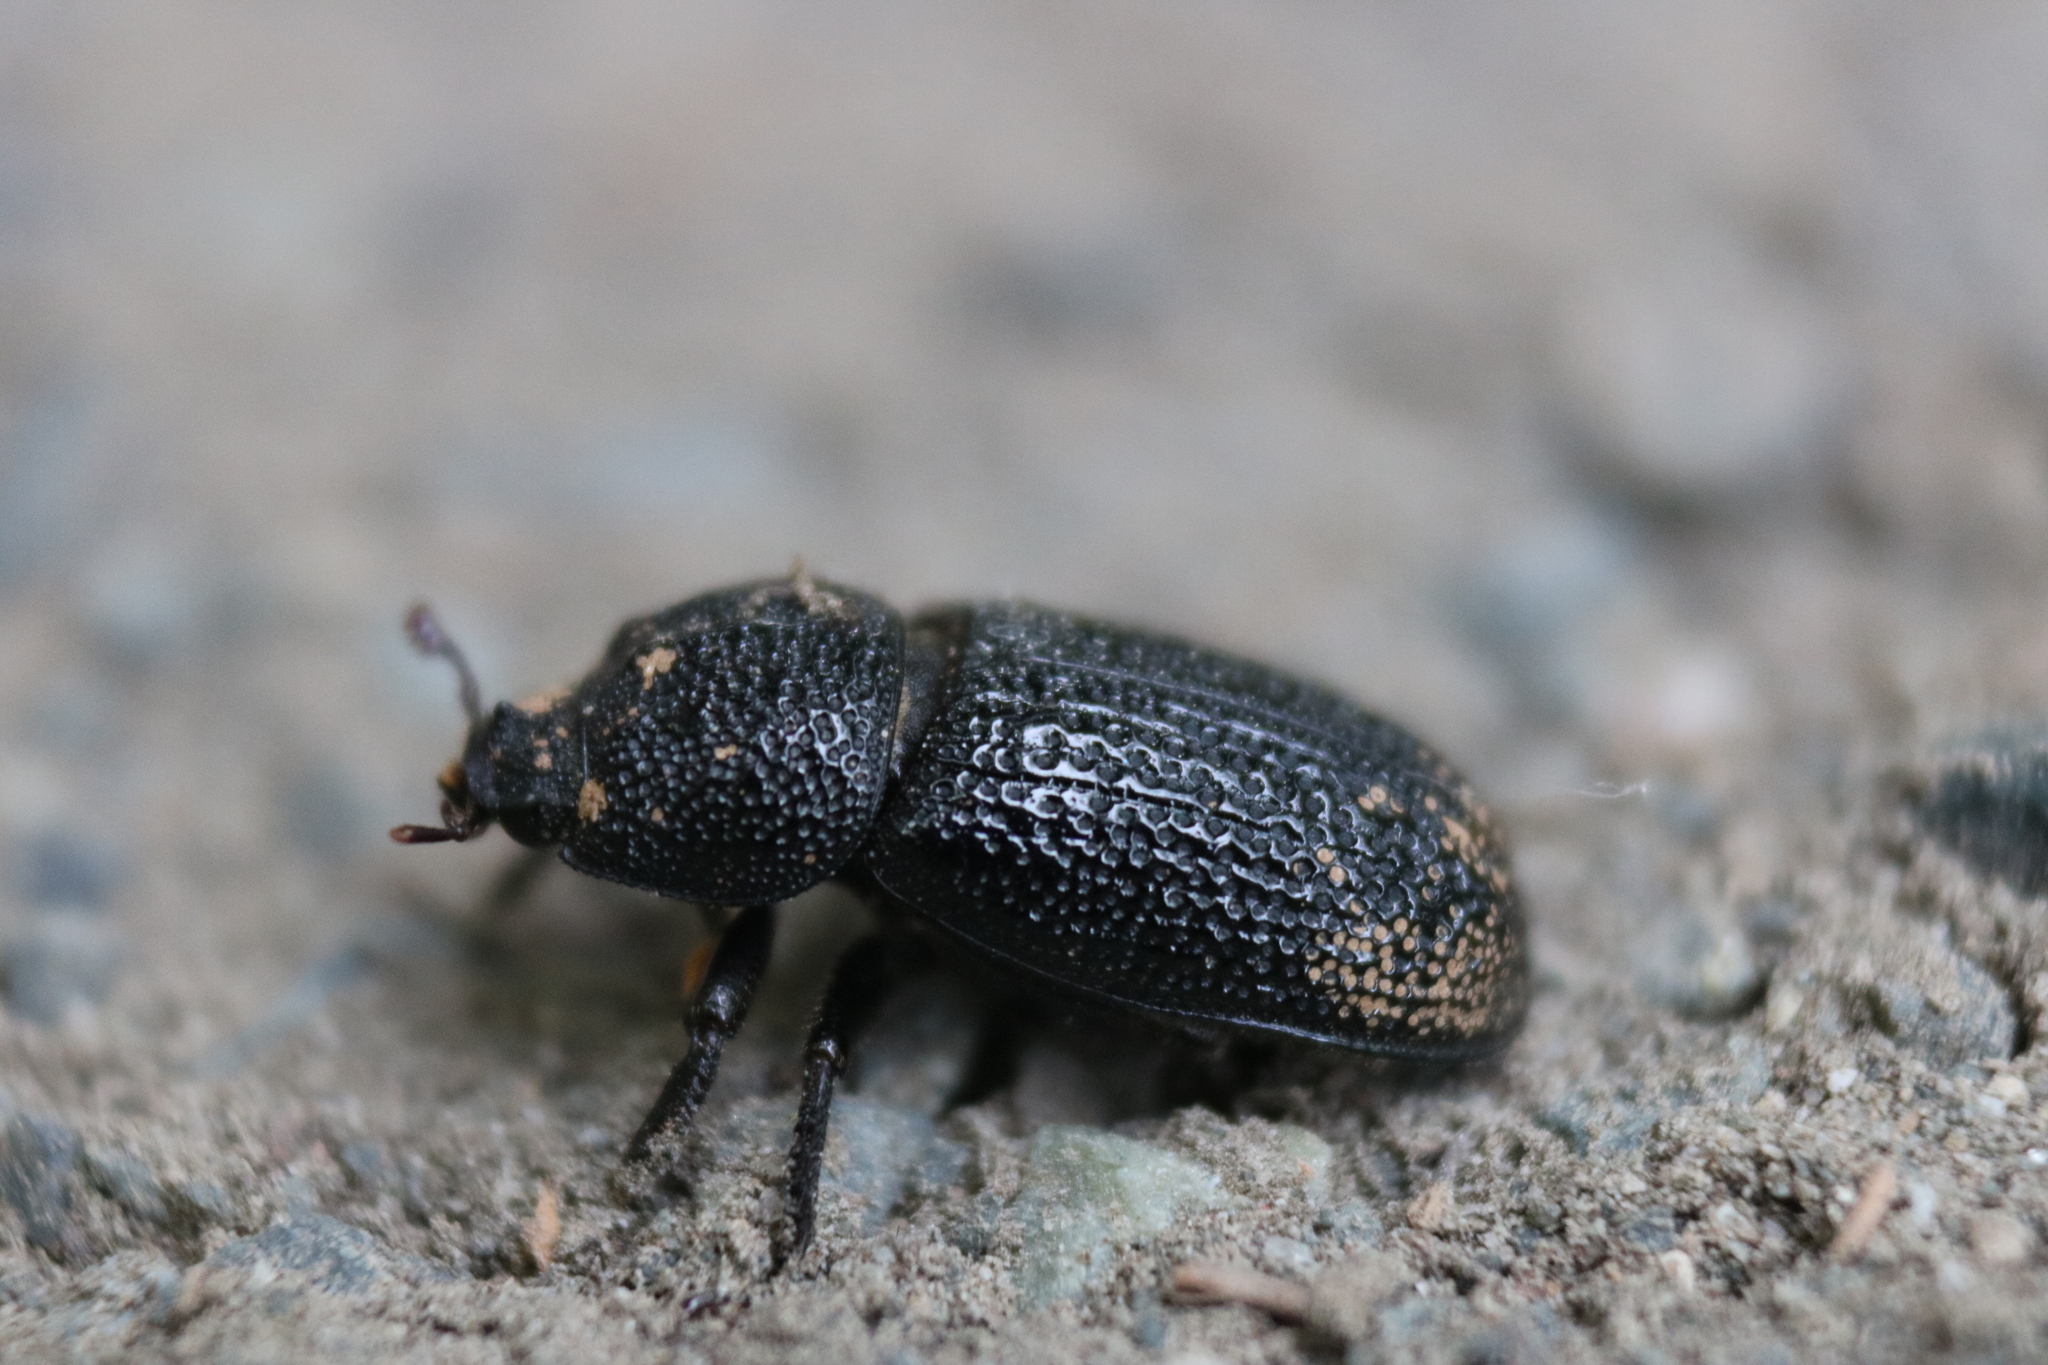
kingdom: Animalia
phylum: Arthropoda
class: Insecta
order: Coleoptera
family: Lucanidae
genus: Sinodendron
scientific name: Sinodendron rugosum
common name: Rugose stag beelte
